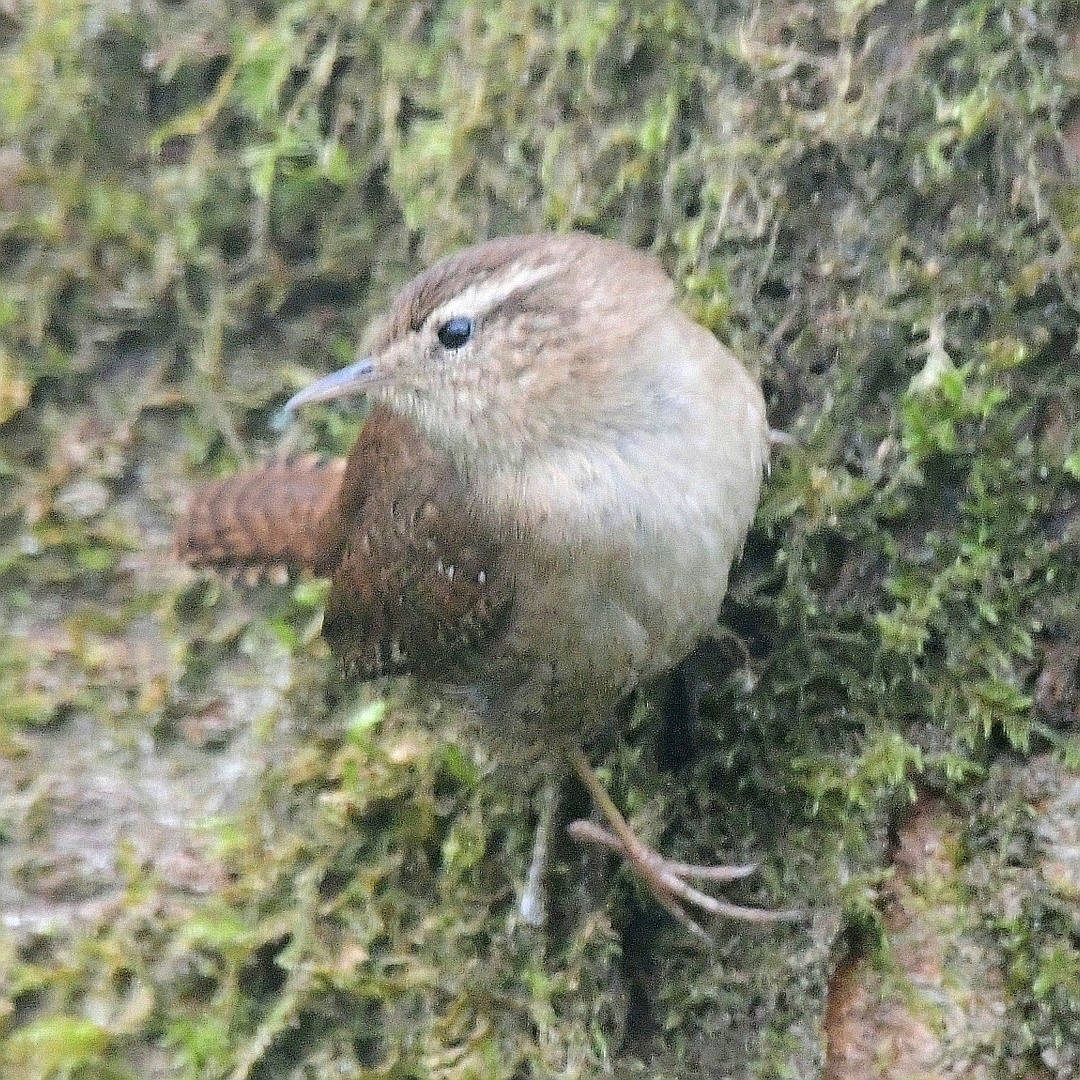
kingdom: Animalia
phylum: Chordata
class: Aves
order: Passeriformes
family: Troglodytidae
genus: Troglodytes
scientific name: Troglodytes troglodytes
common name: Eurasian wren
